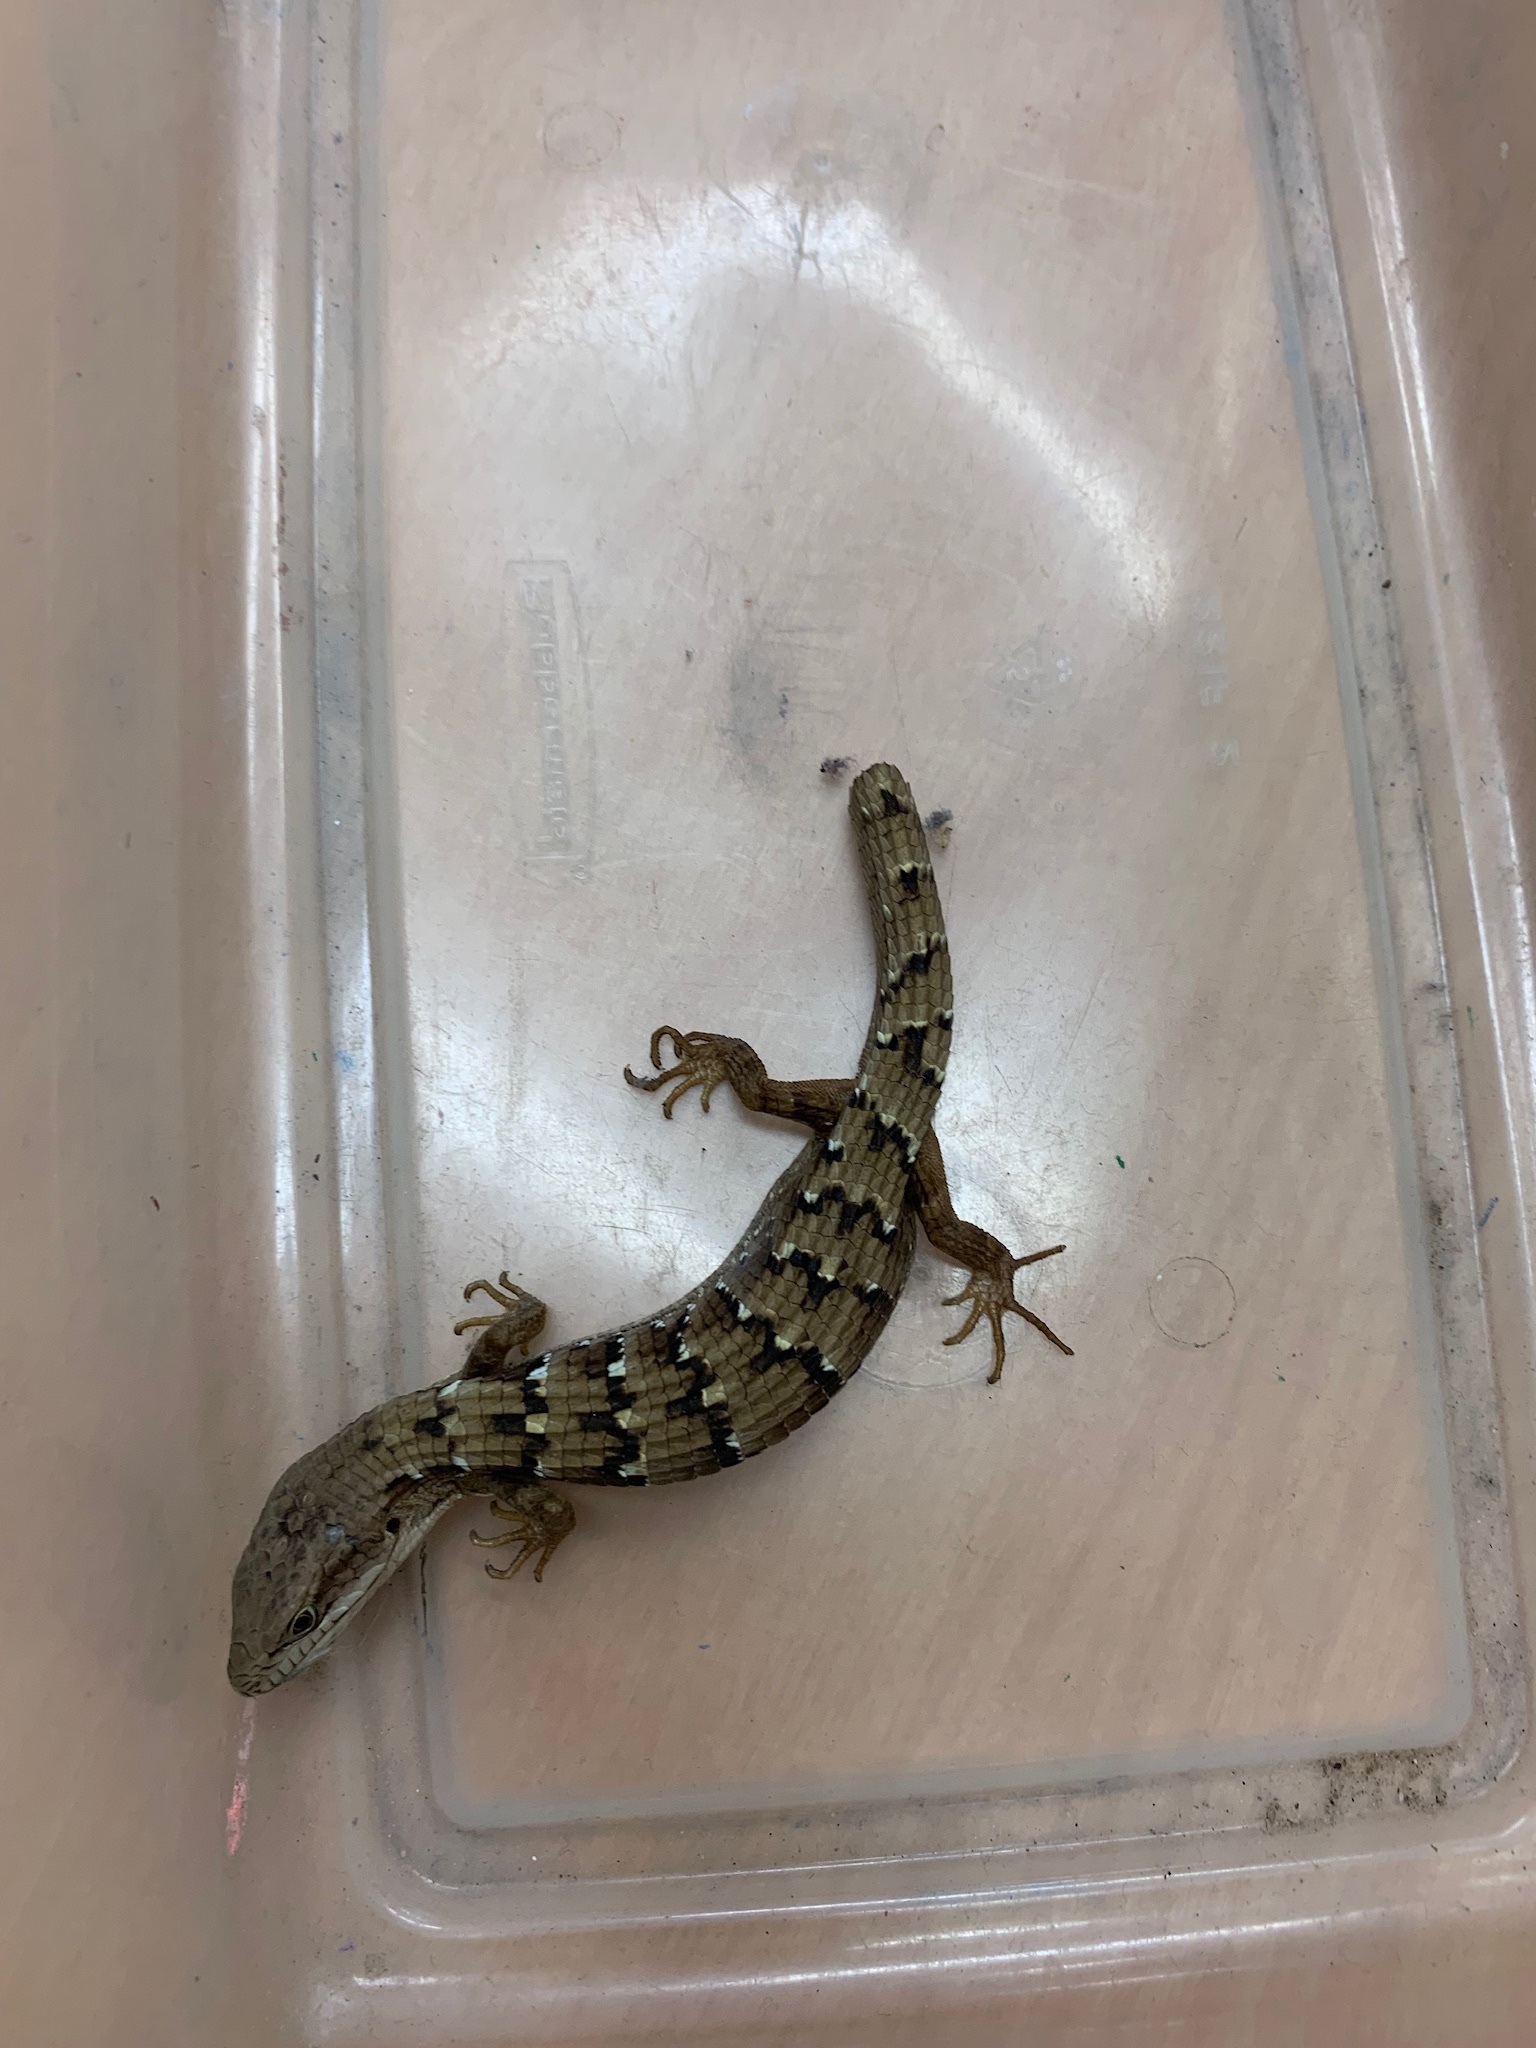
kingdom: Animalia
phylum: Chordata
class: Squamata
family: Anguidae
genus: Elgaria
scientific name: Elgaria multicarinata
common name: Southern alligator lizard
